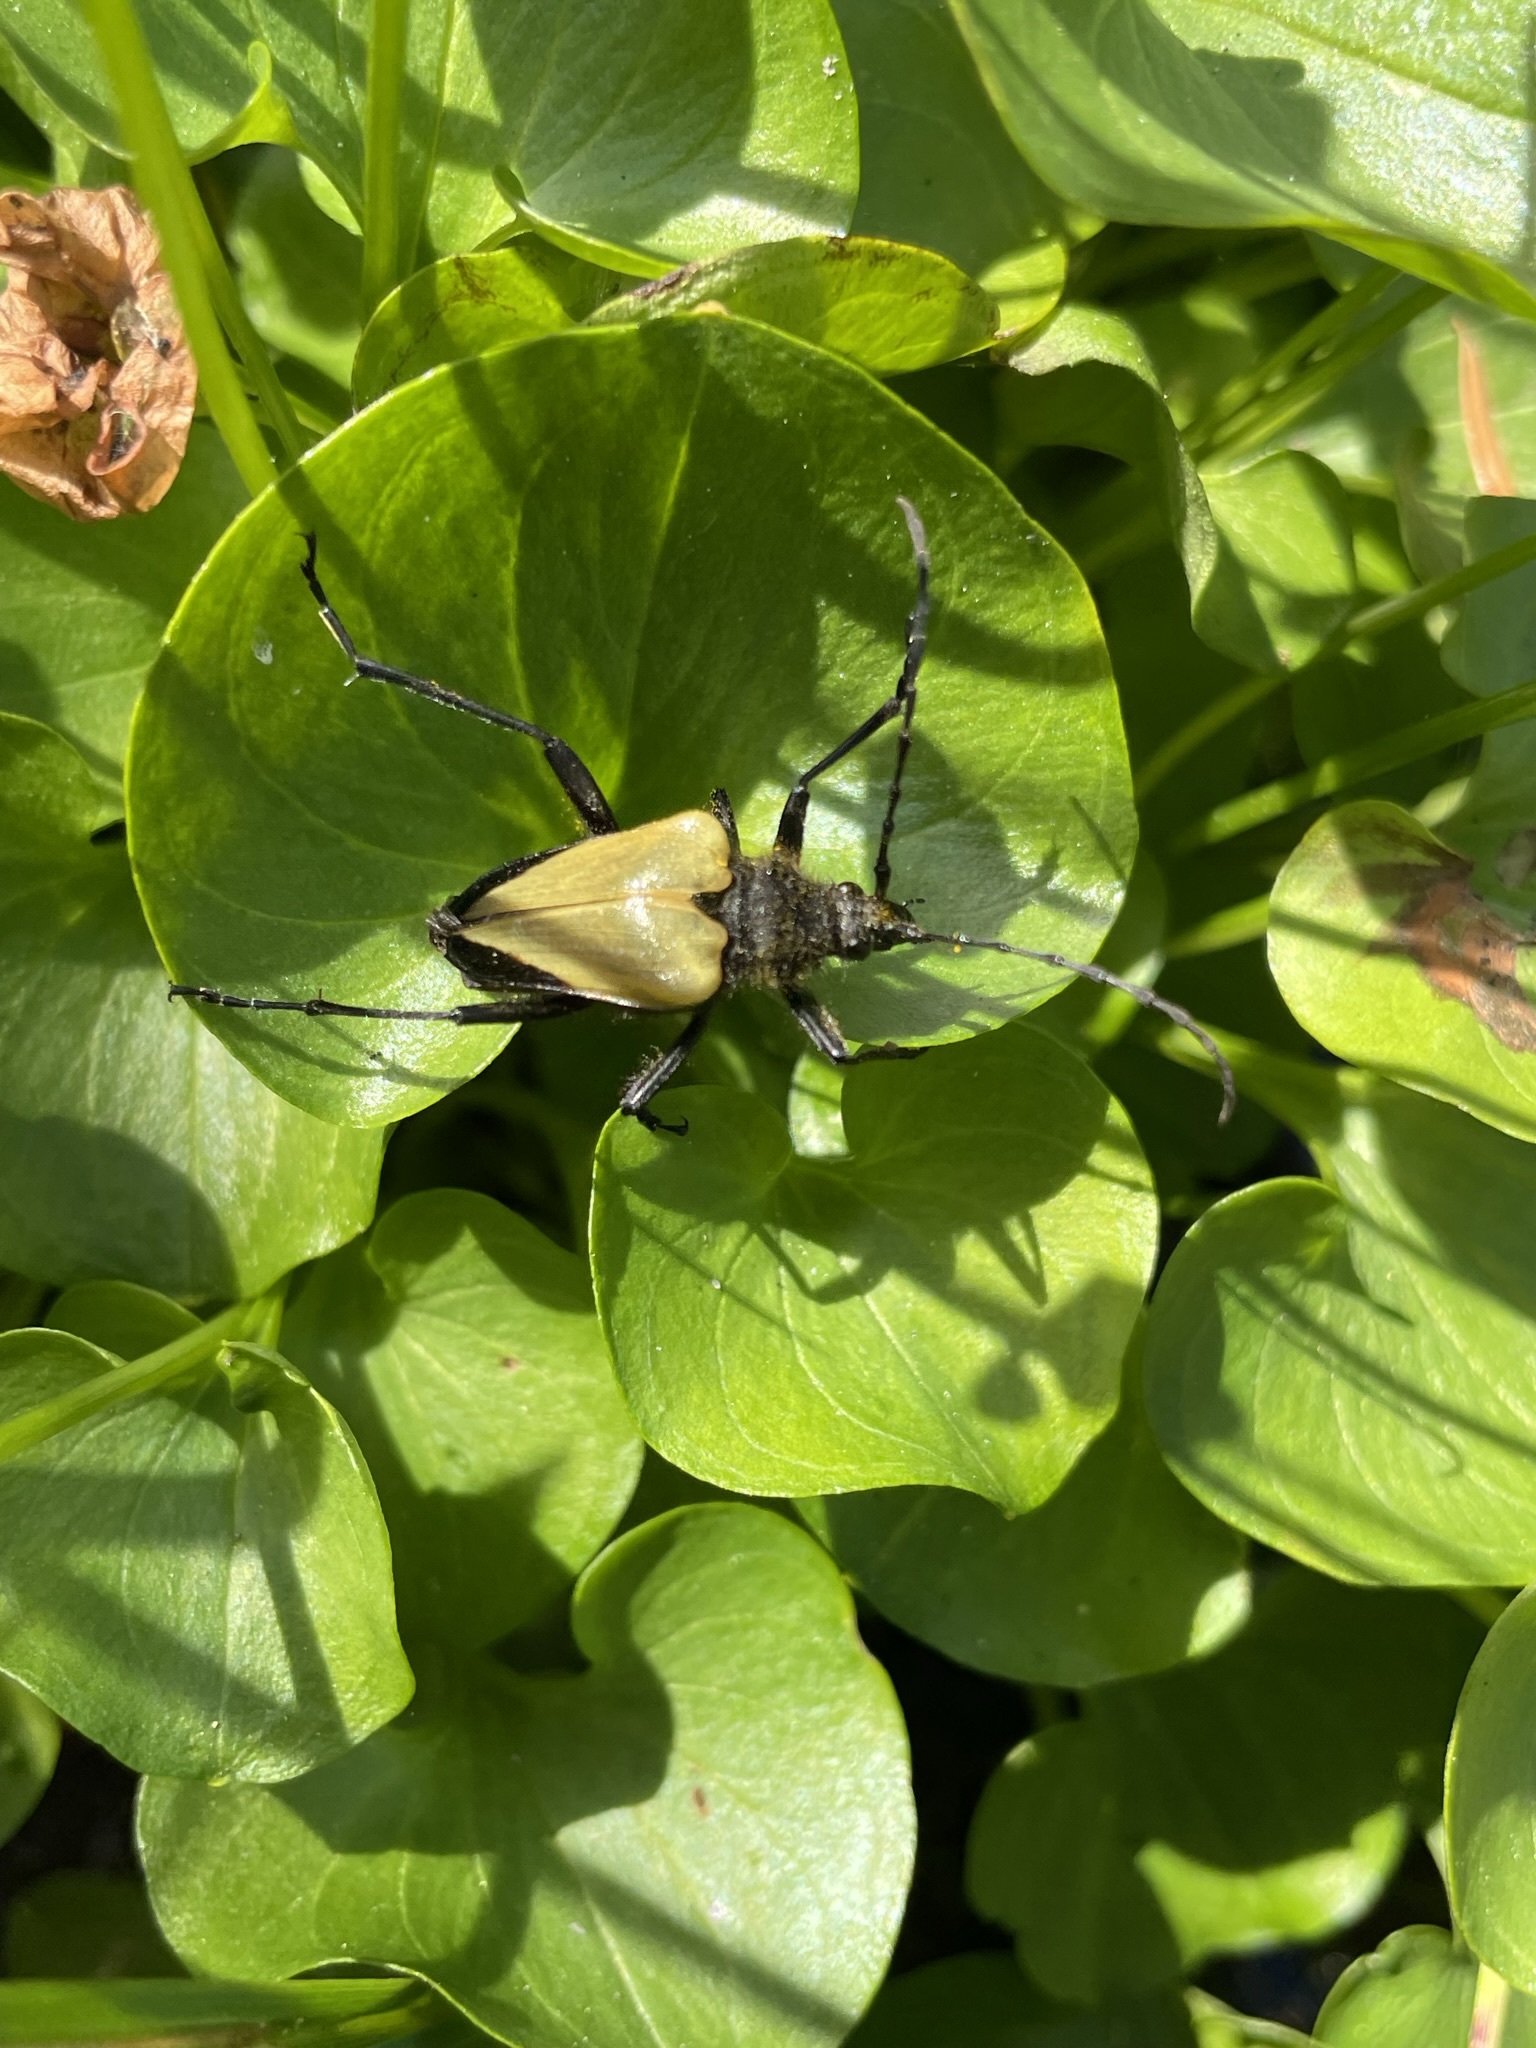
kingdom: Animalia
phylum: Arthropoda
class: Insecta
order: Coleoptera
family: Cerambycidae
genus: Pachyta
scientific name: Pachyta armata
